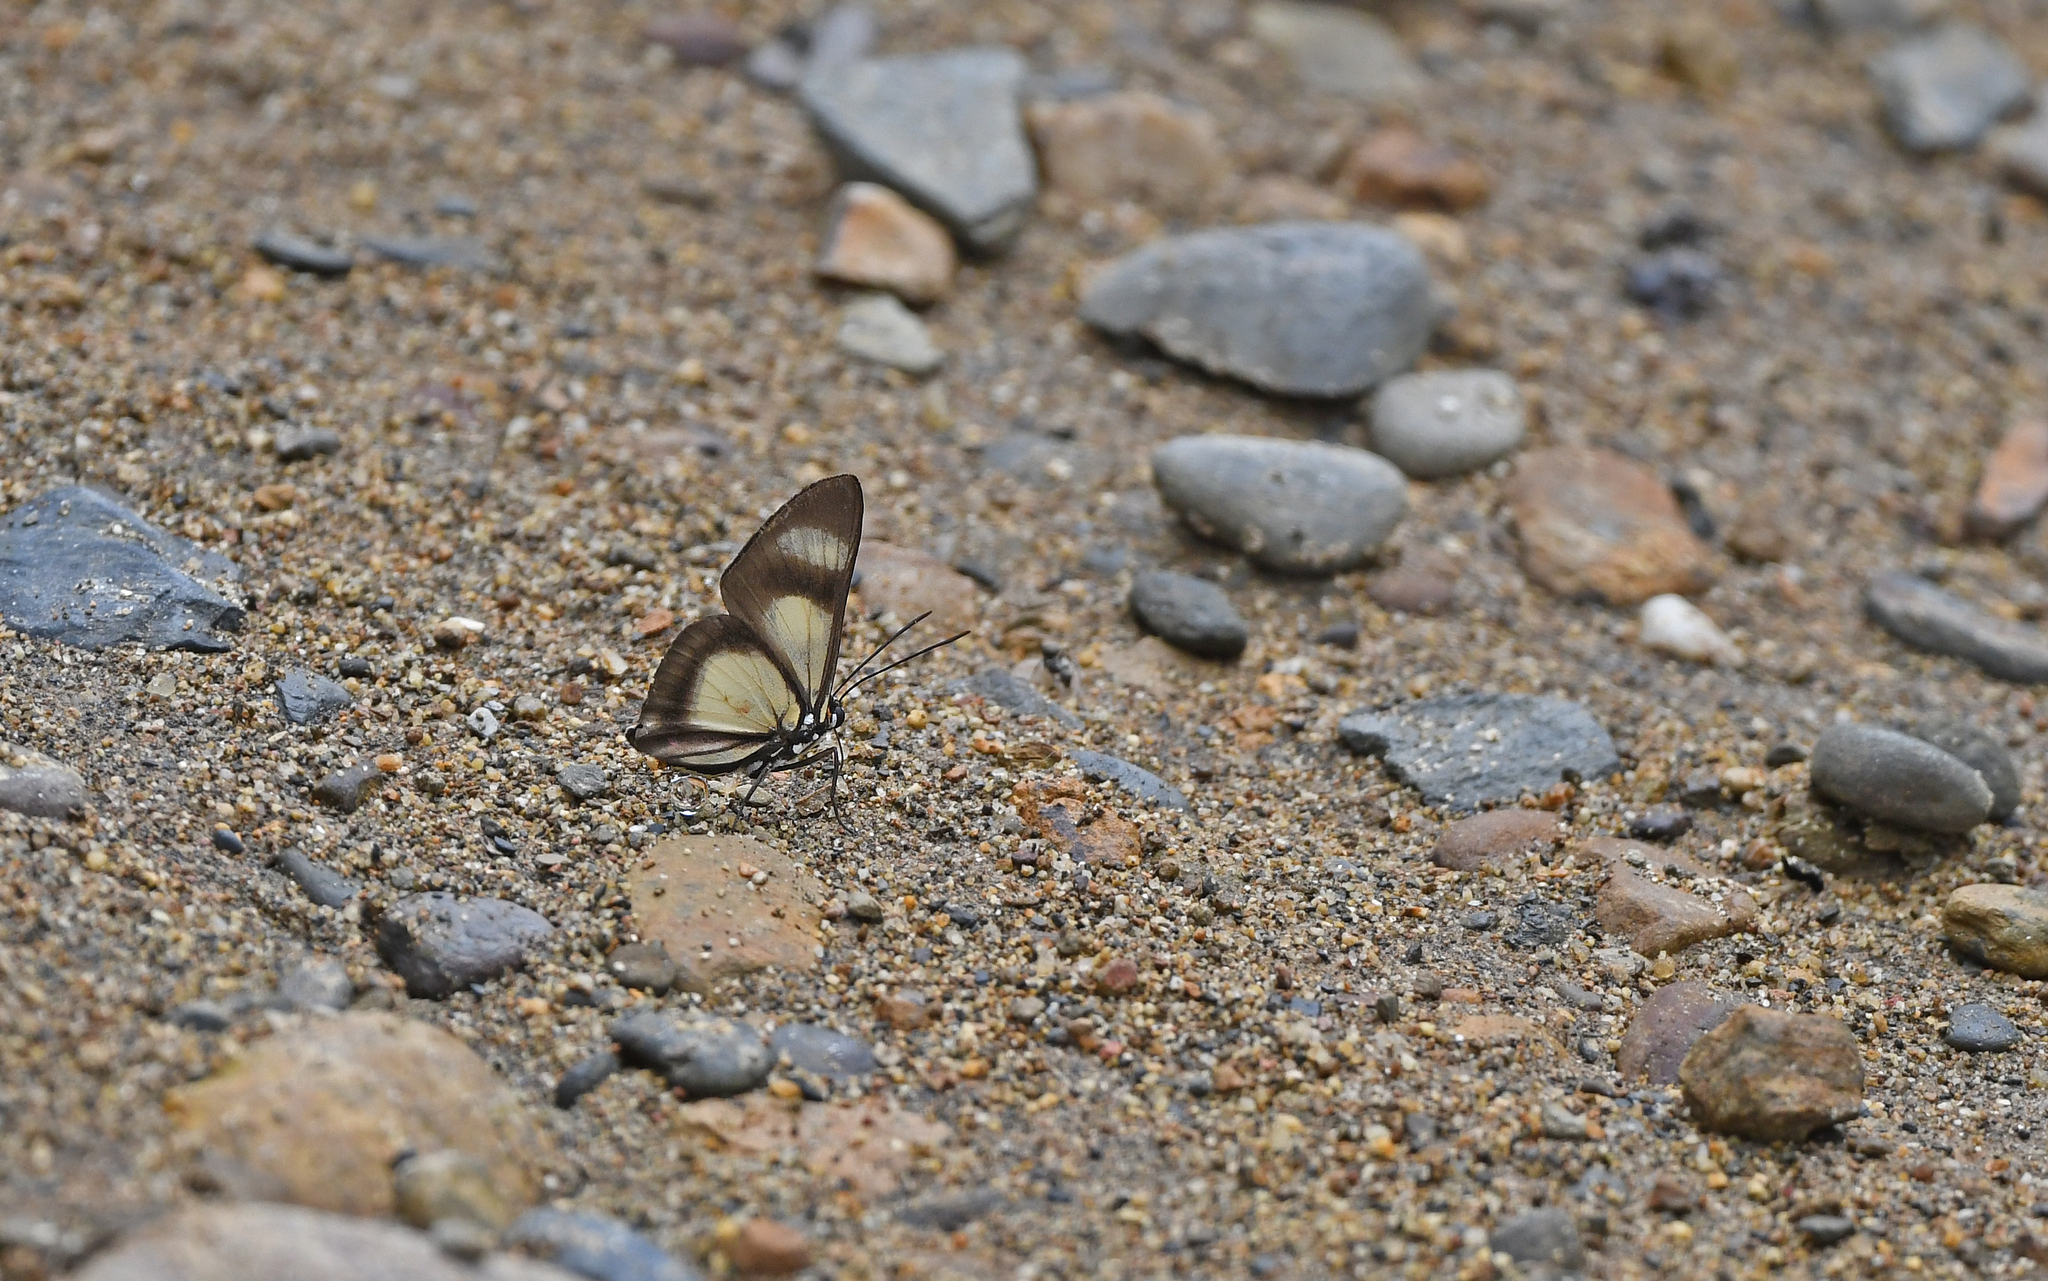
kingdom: Animalia
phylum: Arthropoda
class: Insecta
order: Lepidoptera
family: Riodinidae
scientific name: Riodinidae
